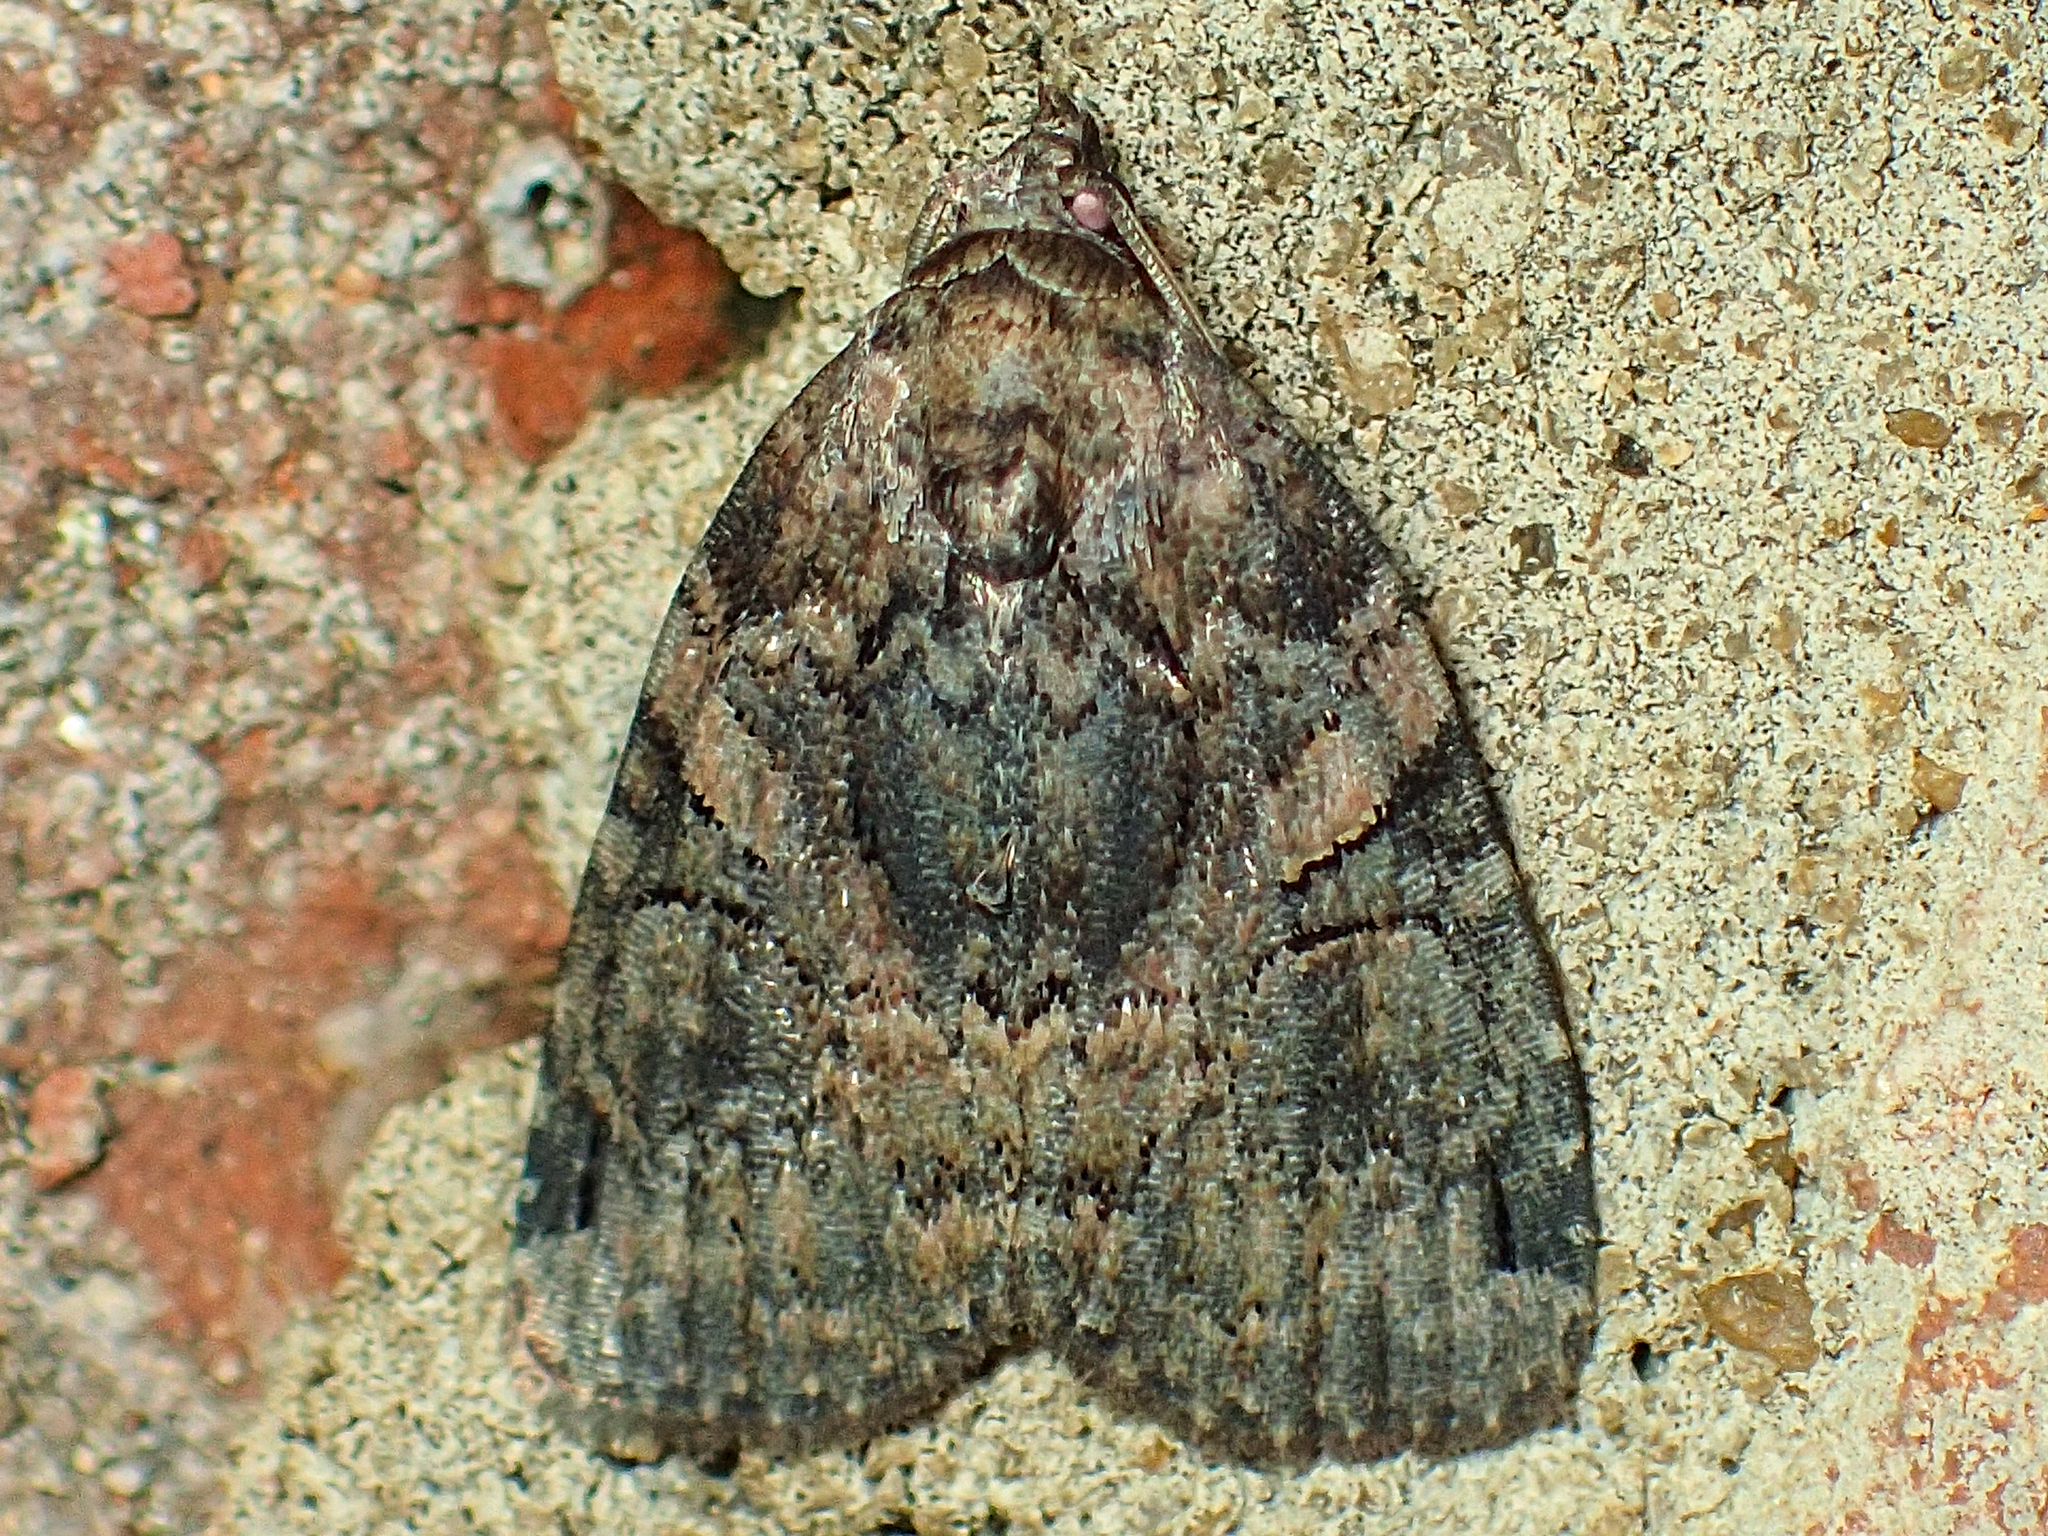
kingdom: Animalia
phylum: Arthropoda
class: Insecta
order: Lepidoptera
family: Noctuidae
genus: Pseudeustrotia
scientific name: Pseudeustrotia indeterminata
